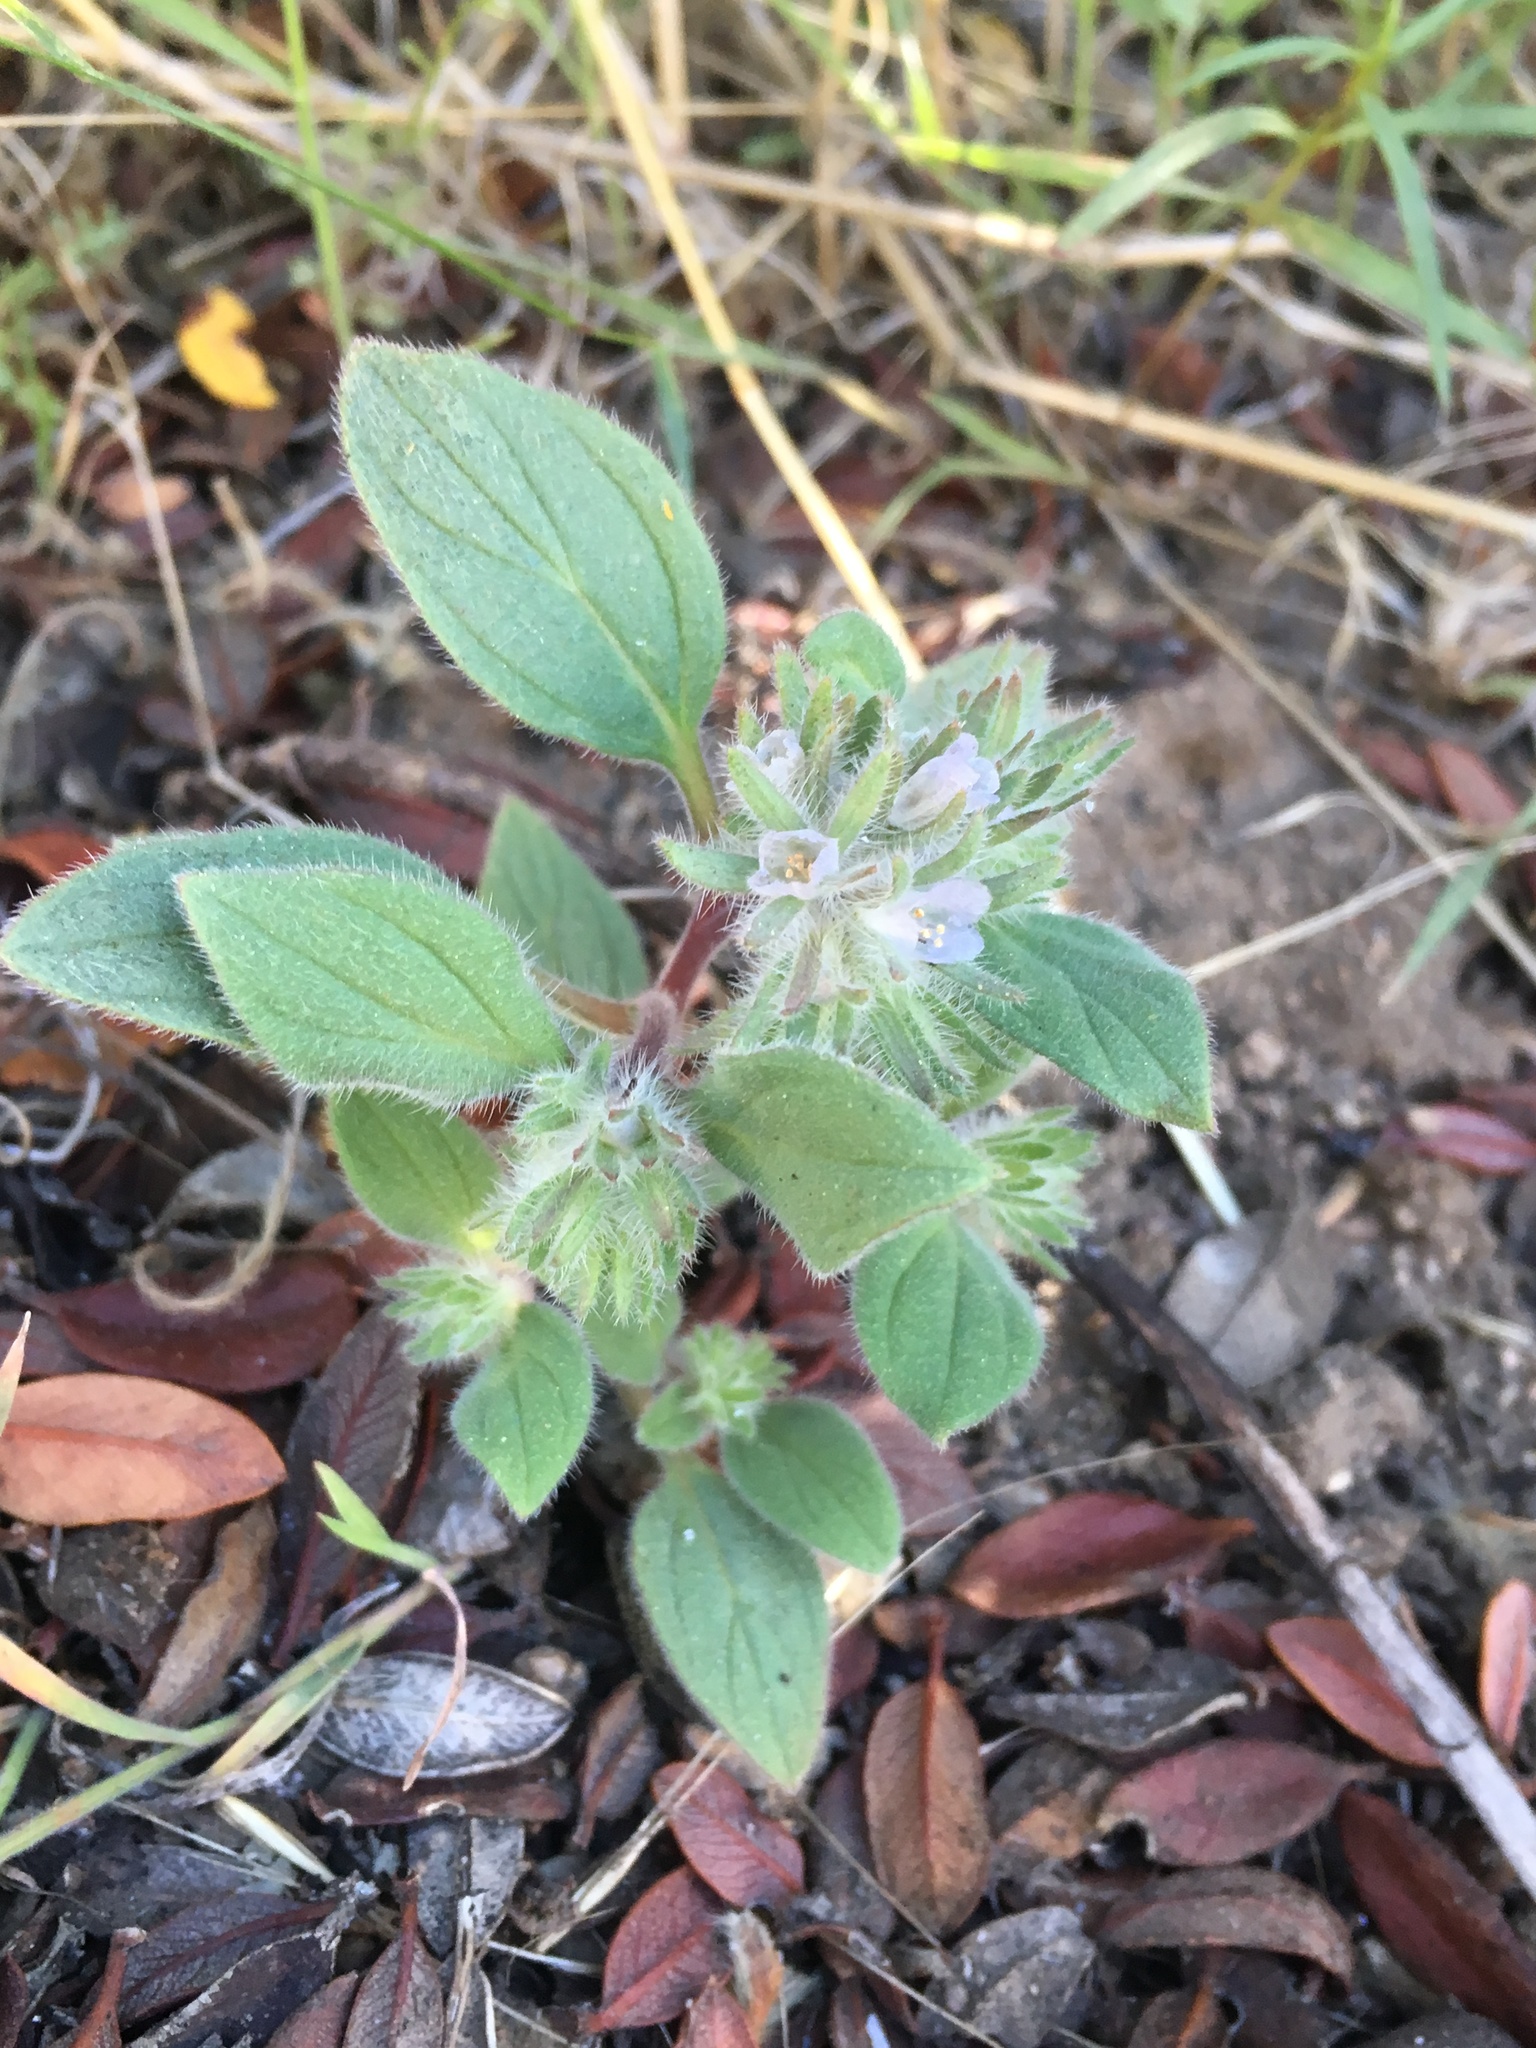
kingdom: Plantae
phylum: Tracheophyta
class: Magnoliopsida
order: Boraginales
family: Hydrophyllaceae
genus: Phacelia
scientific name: Phacelia novenmillensis
